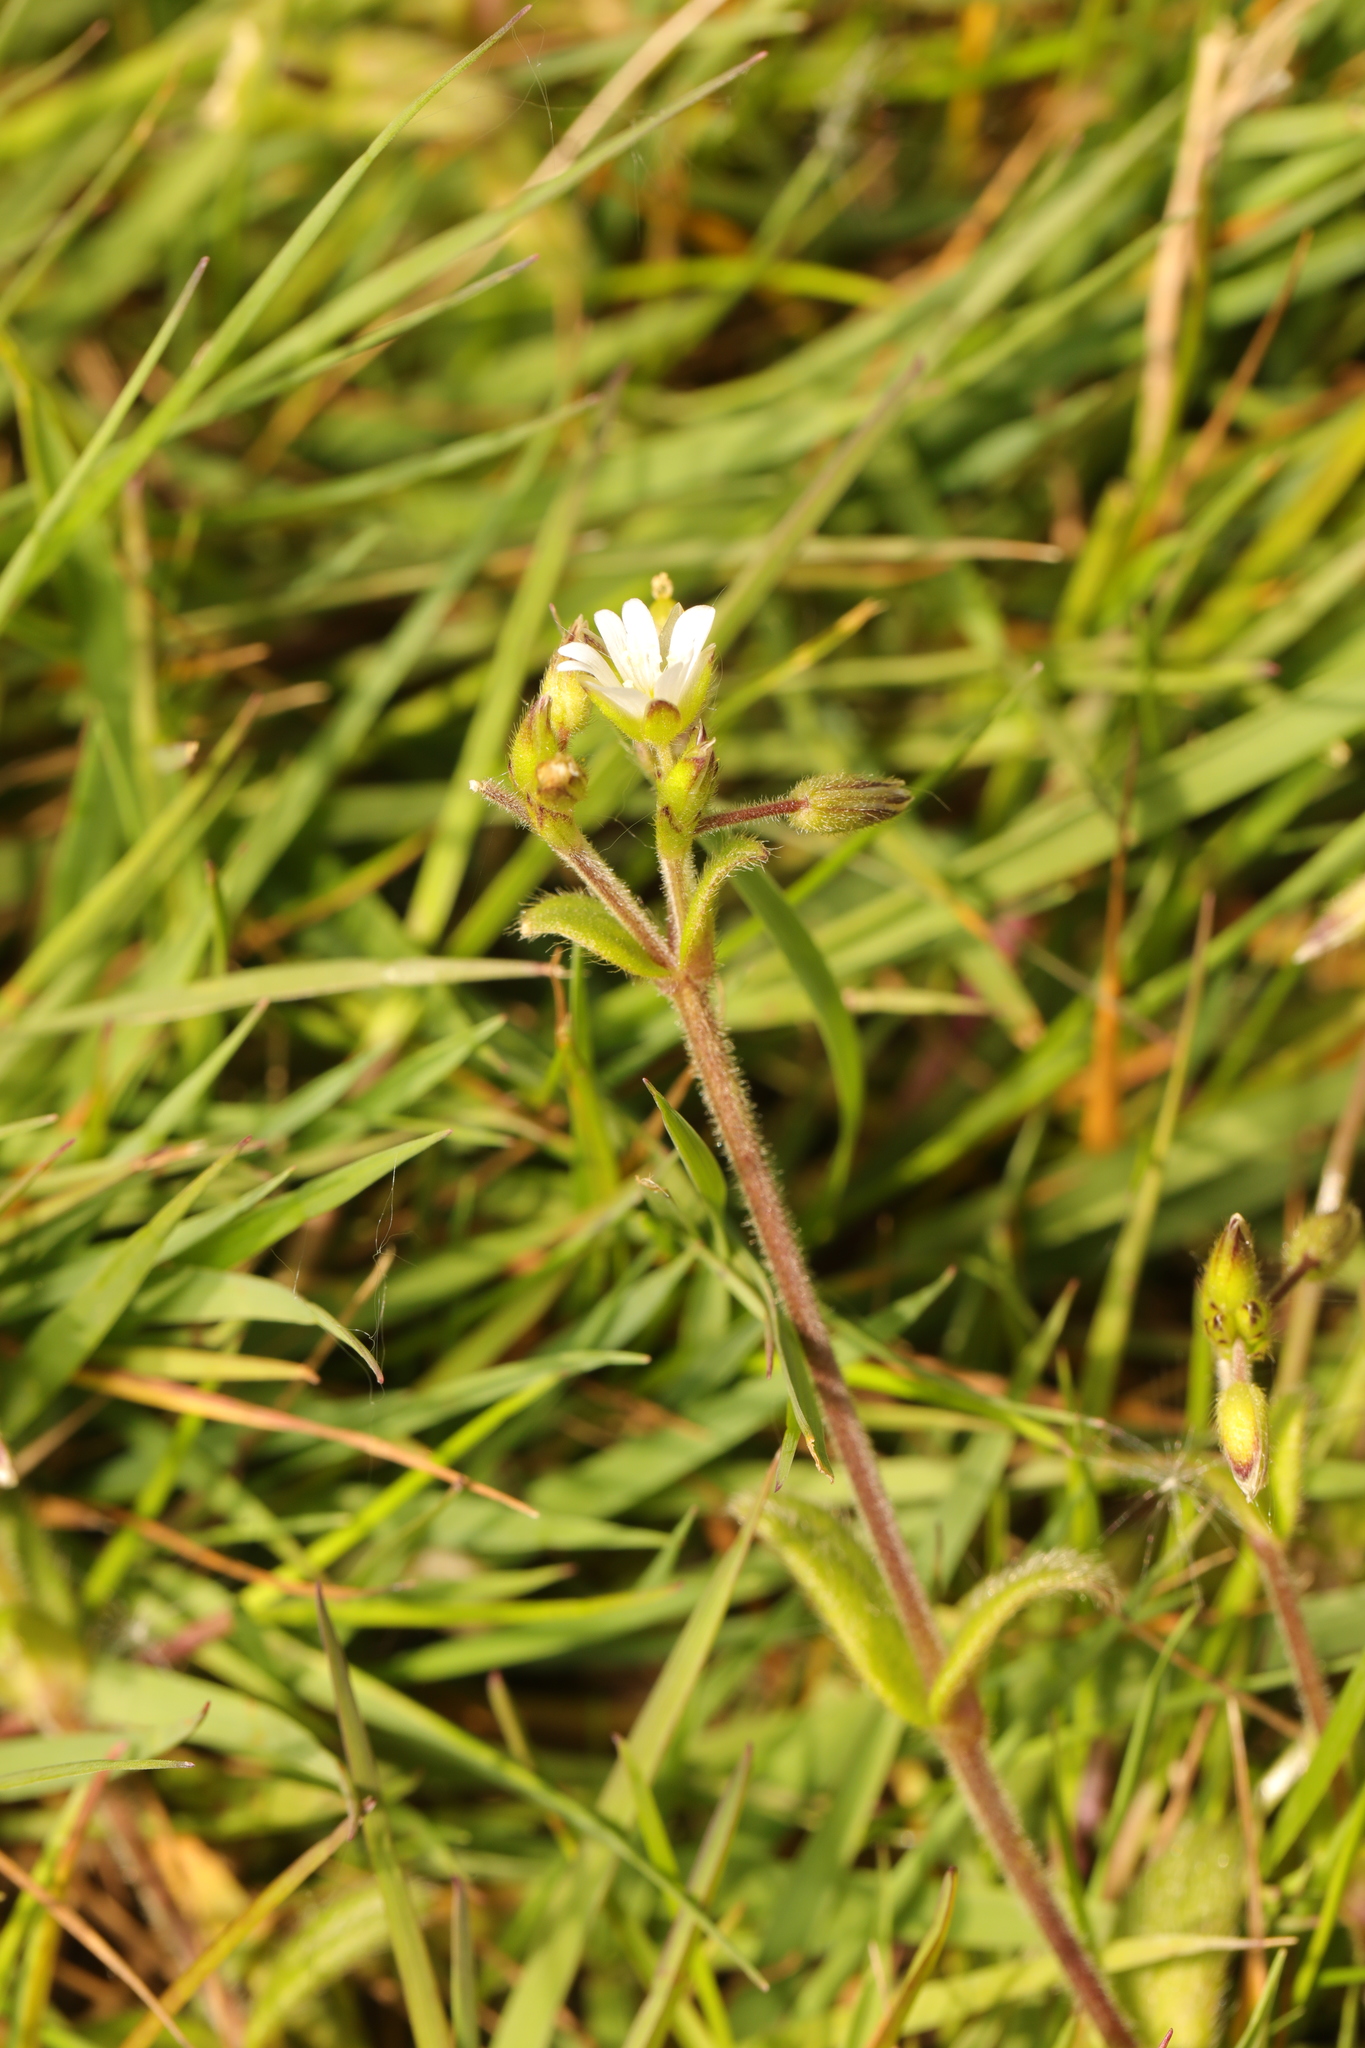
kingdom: Plantae
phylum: Tracheophyta
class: Magnoliopsida
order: Caryophyllales
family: Caryophyllaceae
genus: Cerastium
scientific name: Cerastium fontanum
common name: Common mouse-ear
